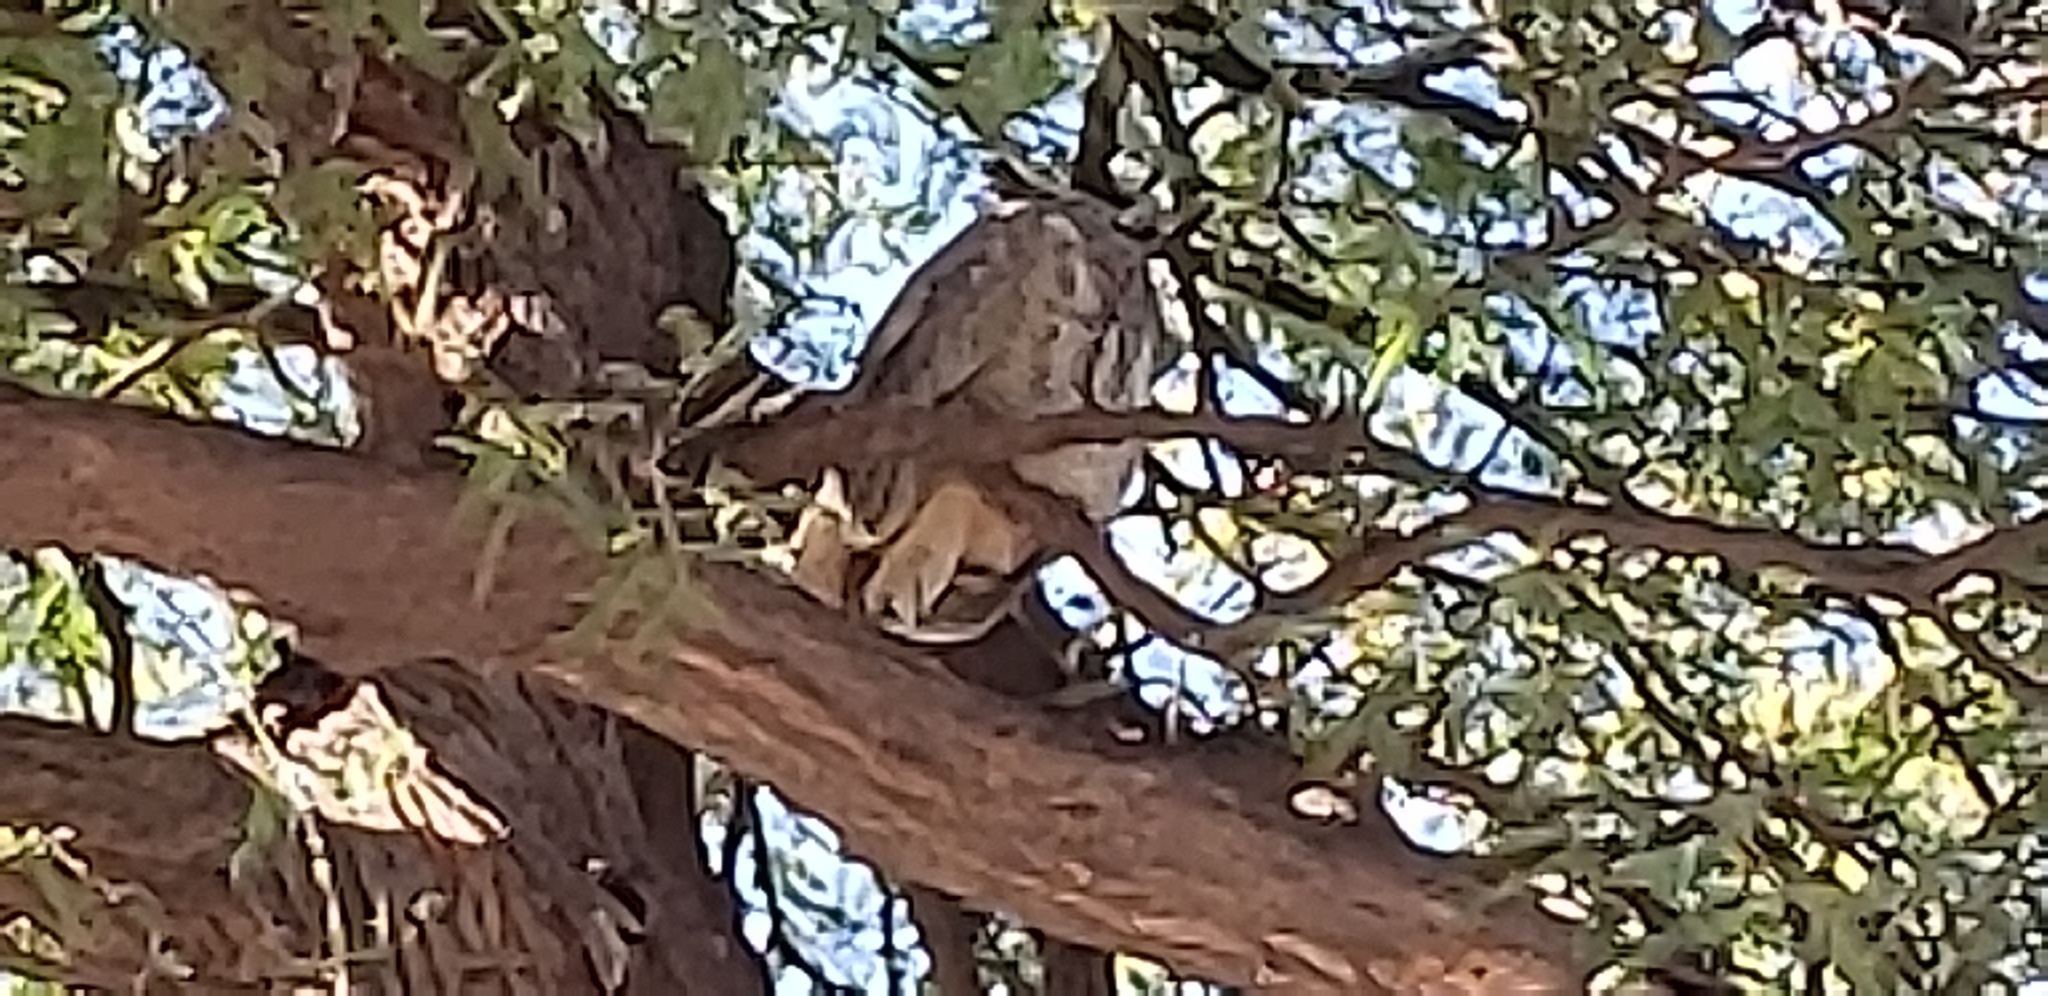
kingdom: Animalia
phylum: Chordata
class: Aves
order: Strigiformes
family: Strigidae
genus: Bubo
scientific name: Bubo virginianus
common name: Great horned owl
